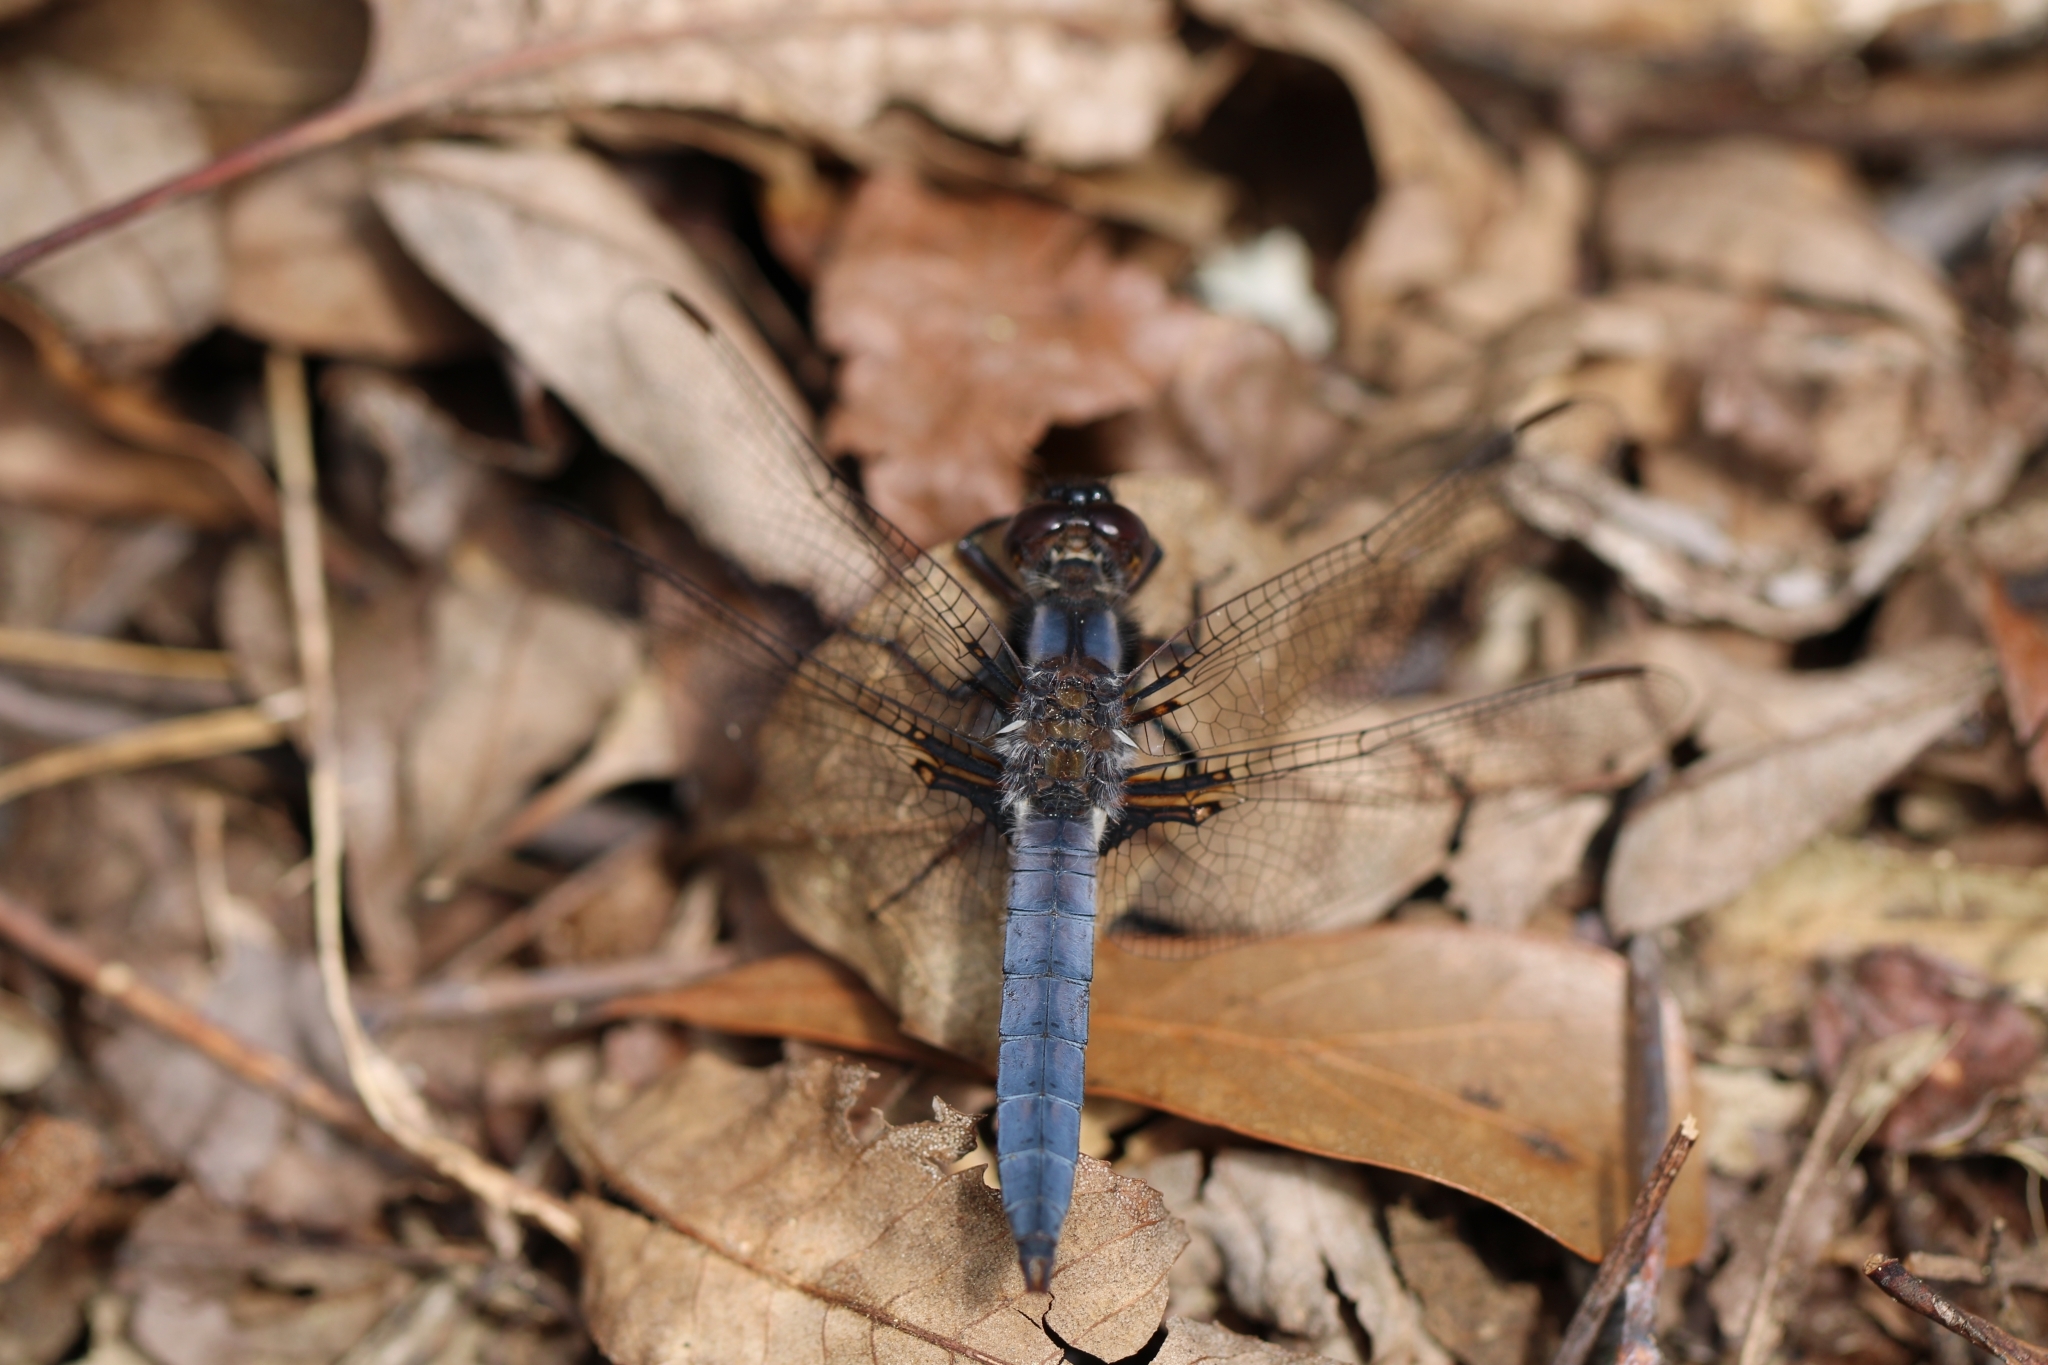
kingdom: Animalia
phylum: Arthropoda
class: Insecta
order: Odonata
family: Libellulidae
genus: Ladona
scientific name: Ladona deplanata
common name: Blue corporal
